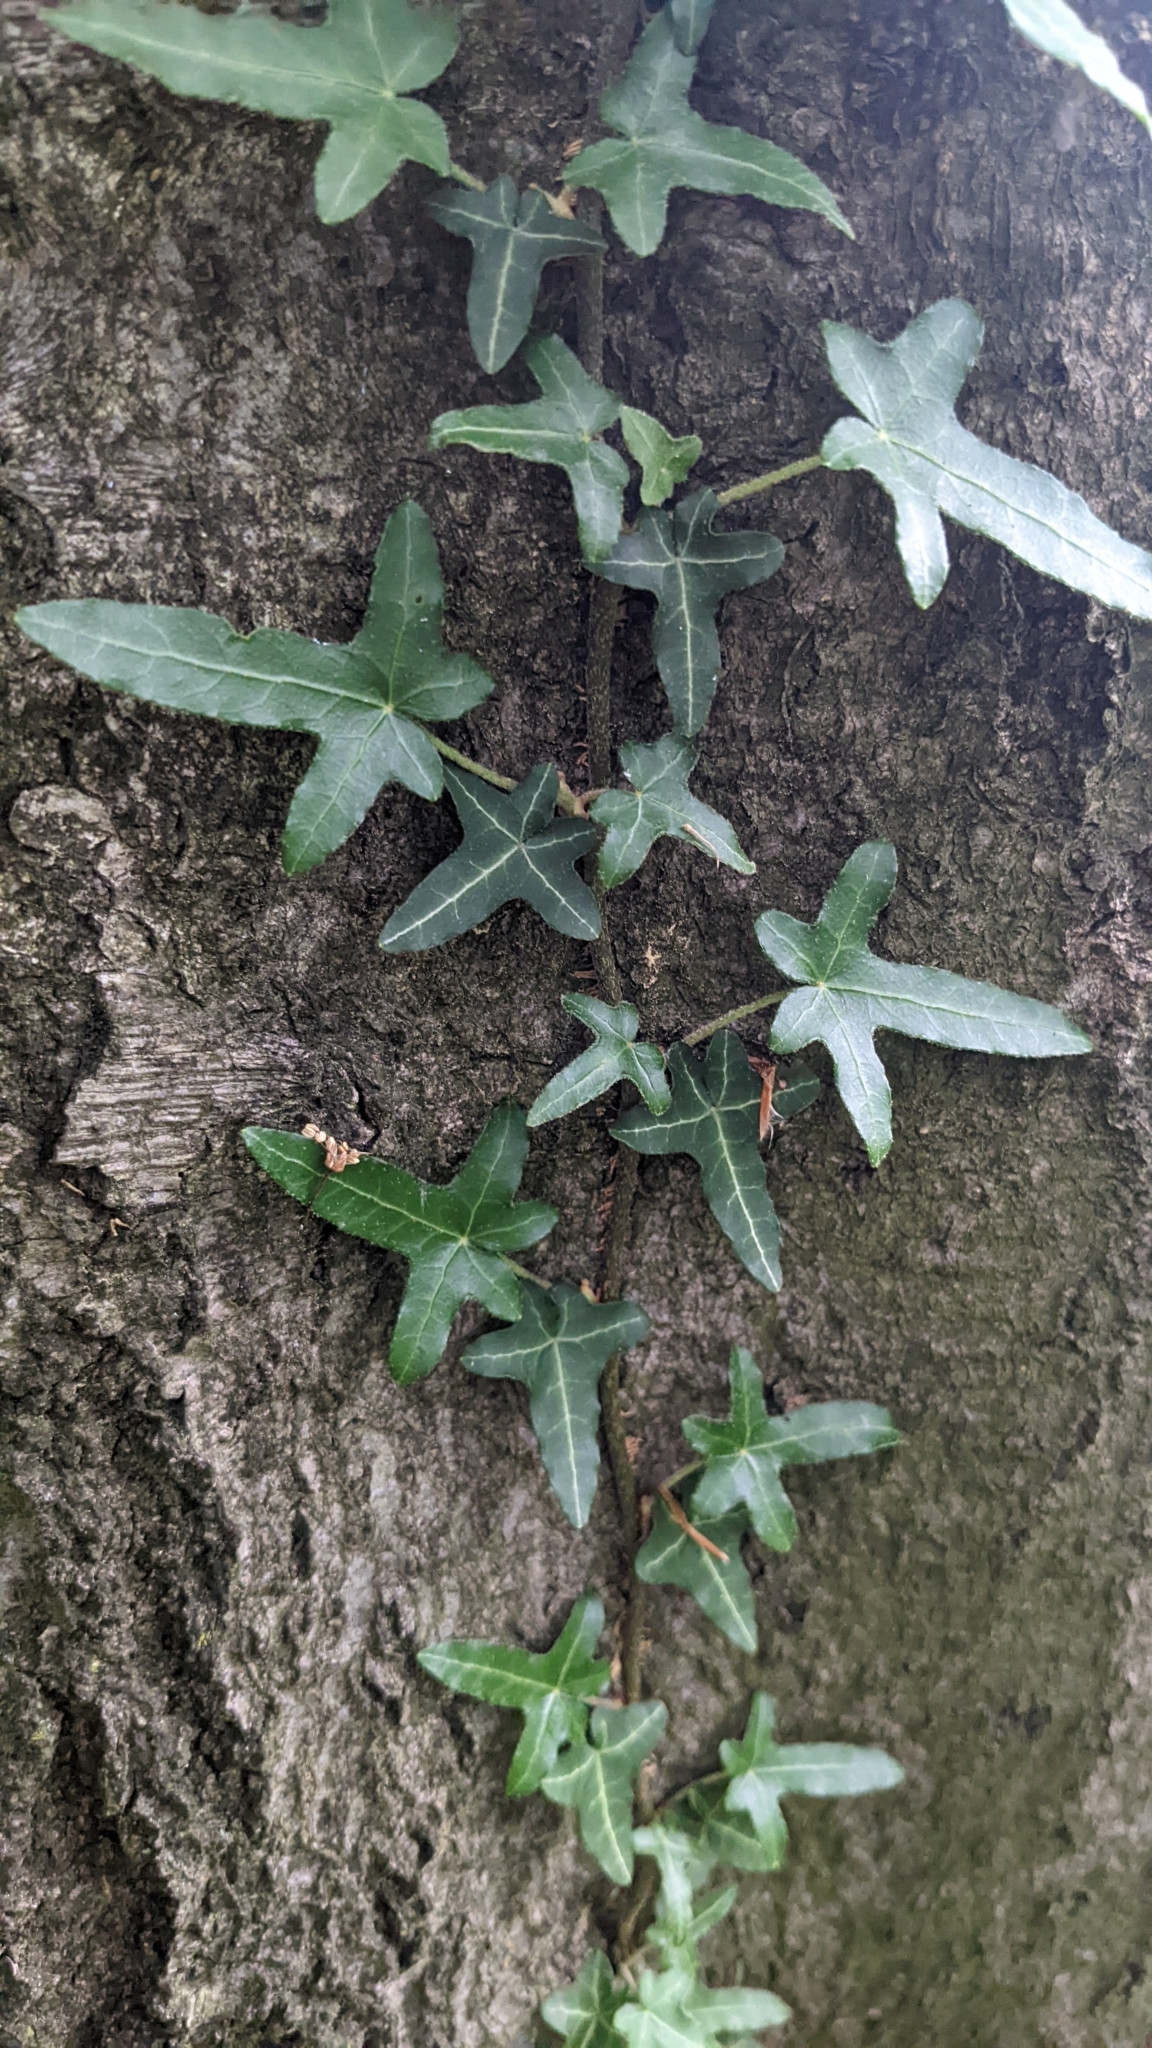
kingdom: Plantae
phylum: Tracheophyta
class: Magnoliopsida
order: Apiales
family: Araliaceae
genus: Hedera
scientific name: Hedera helix
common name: Ivy
